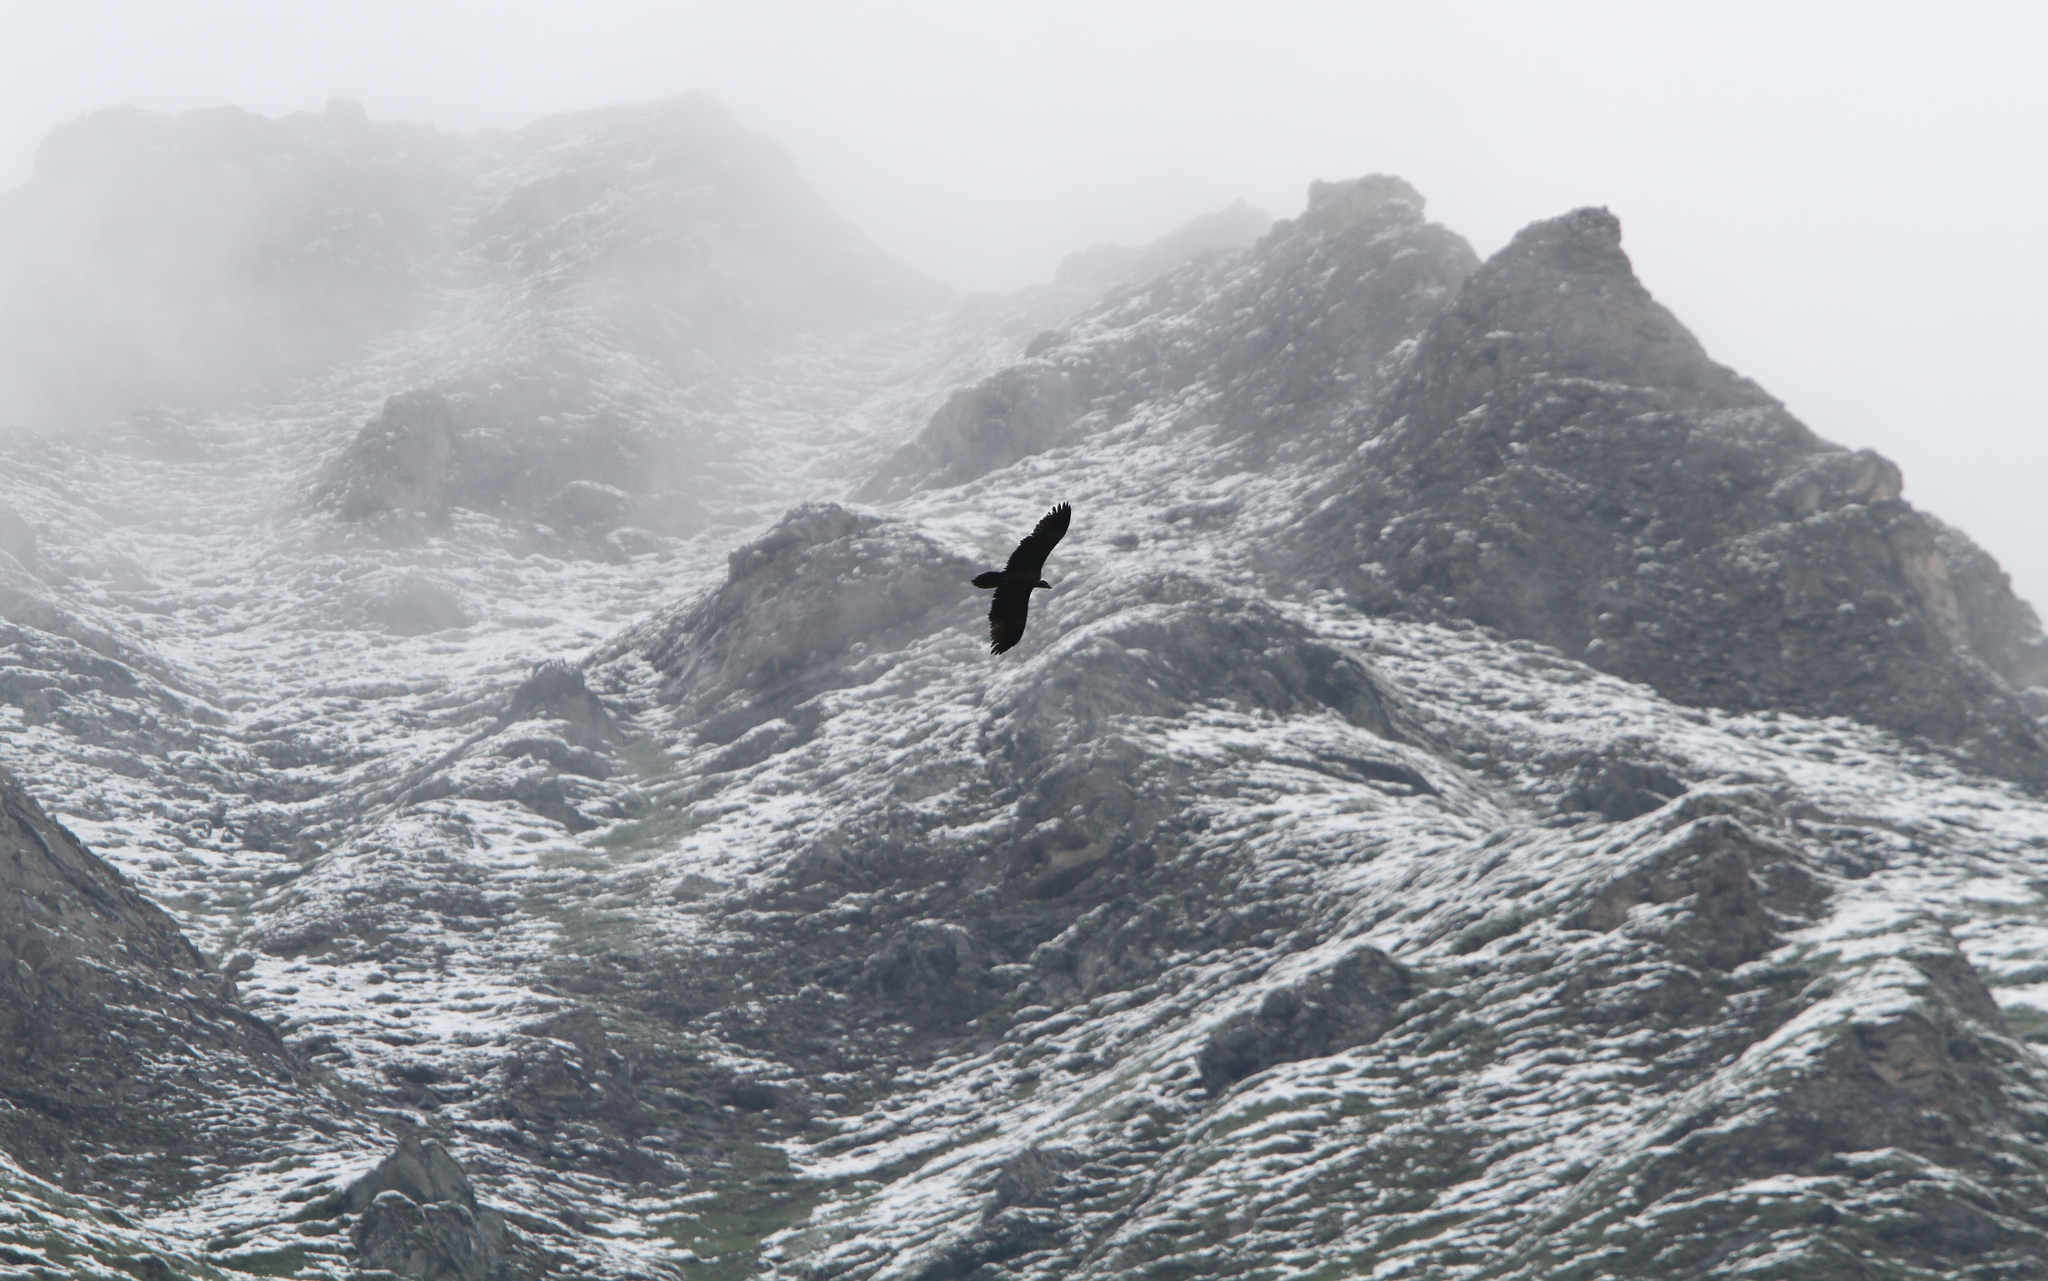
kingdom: Animalia
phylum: Chordata
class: Aves
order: Accipitriformes
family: Accipitridae
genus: Gypaetus
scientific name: Gypaetus barbatus
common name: Bearded vulture
